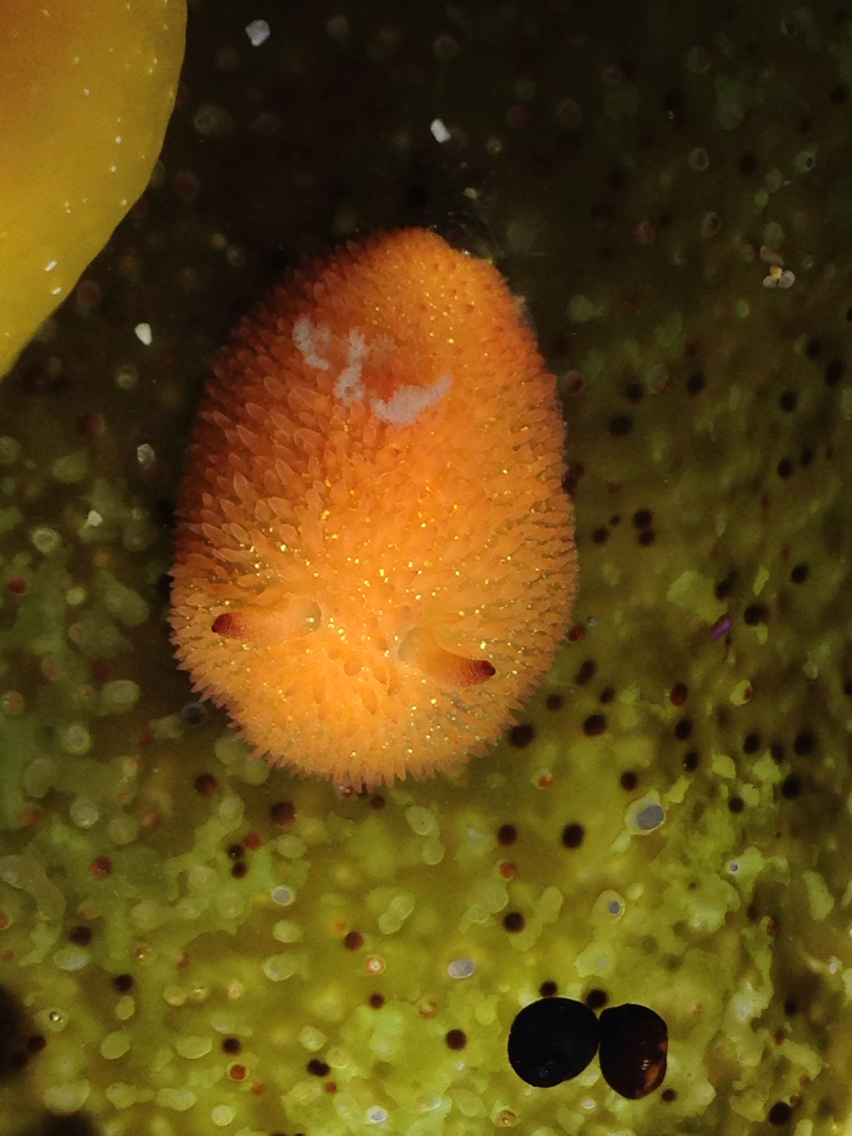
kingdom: Animalia
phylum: Mollusca
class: Gastropoda
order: Nudibranchia
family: Onchidorididae
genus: Acanthodoris
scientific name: Acanthodoris lutea
